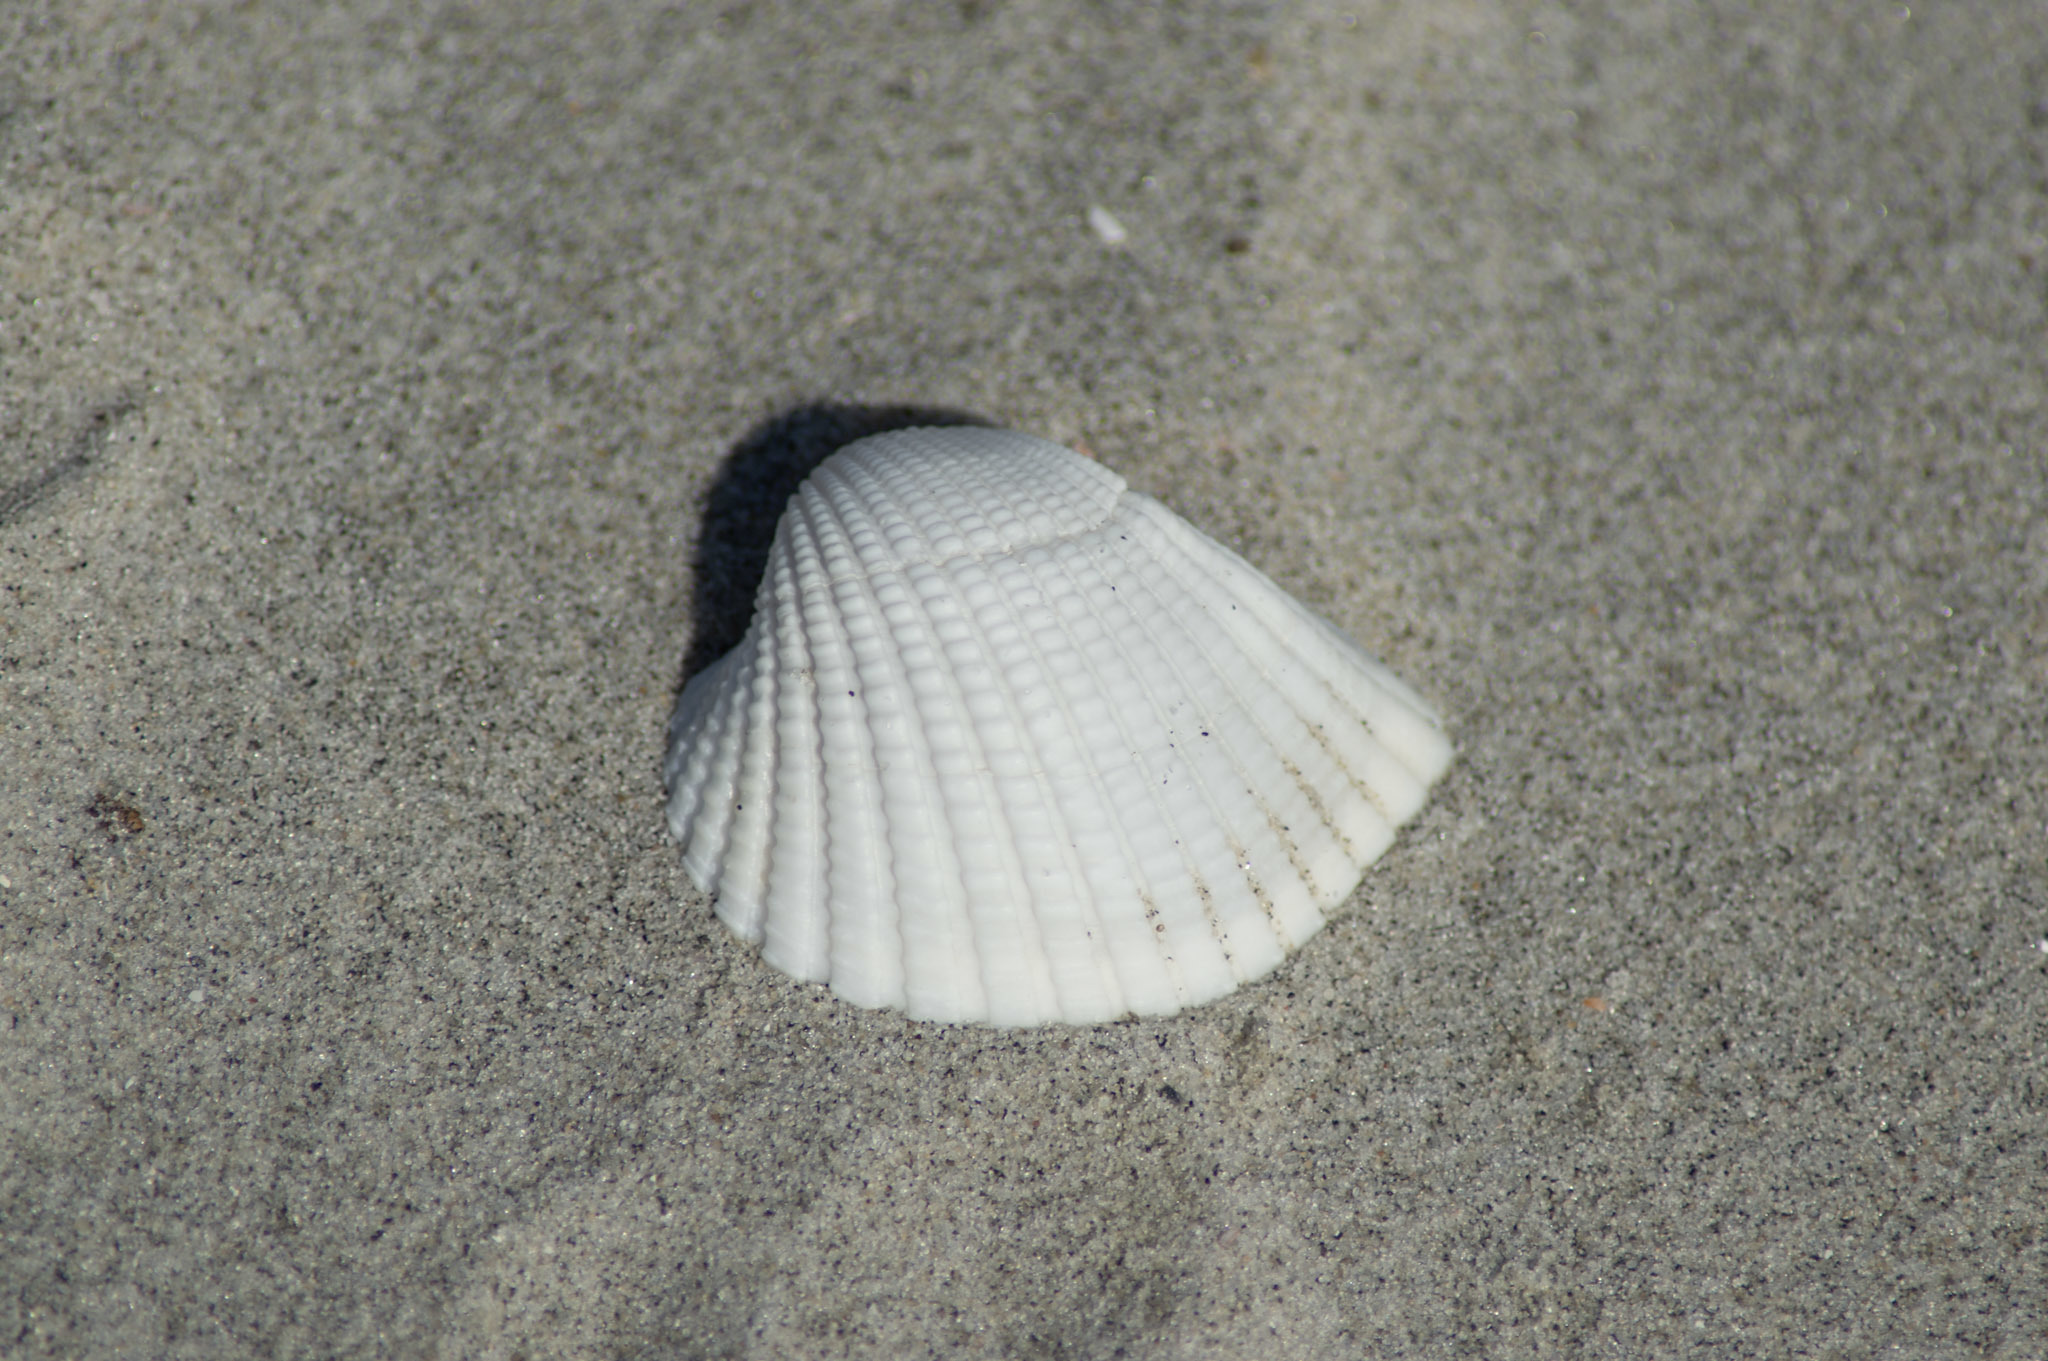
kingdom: Animalia
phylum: Mollusca
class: Bivalvia
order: Arcida
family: Arcidae
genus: Anadara
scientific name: Anadara brasiliana
